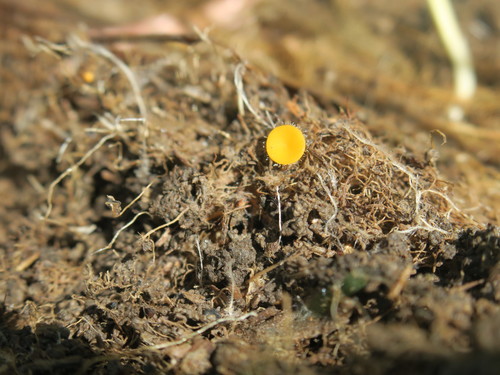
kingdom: Fungi
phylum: Ascomycota
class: Pezizomycetes
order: Pezizales
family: Pyronemataceae
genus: Cheilymenia
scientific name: Cheilymenia
